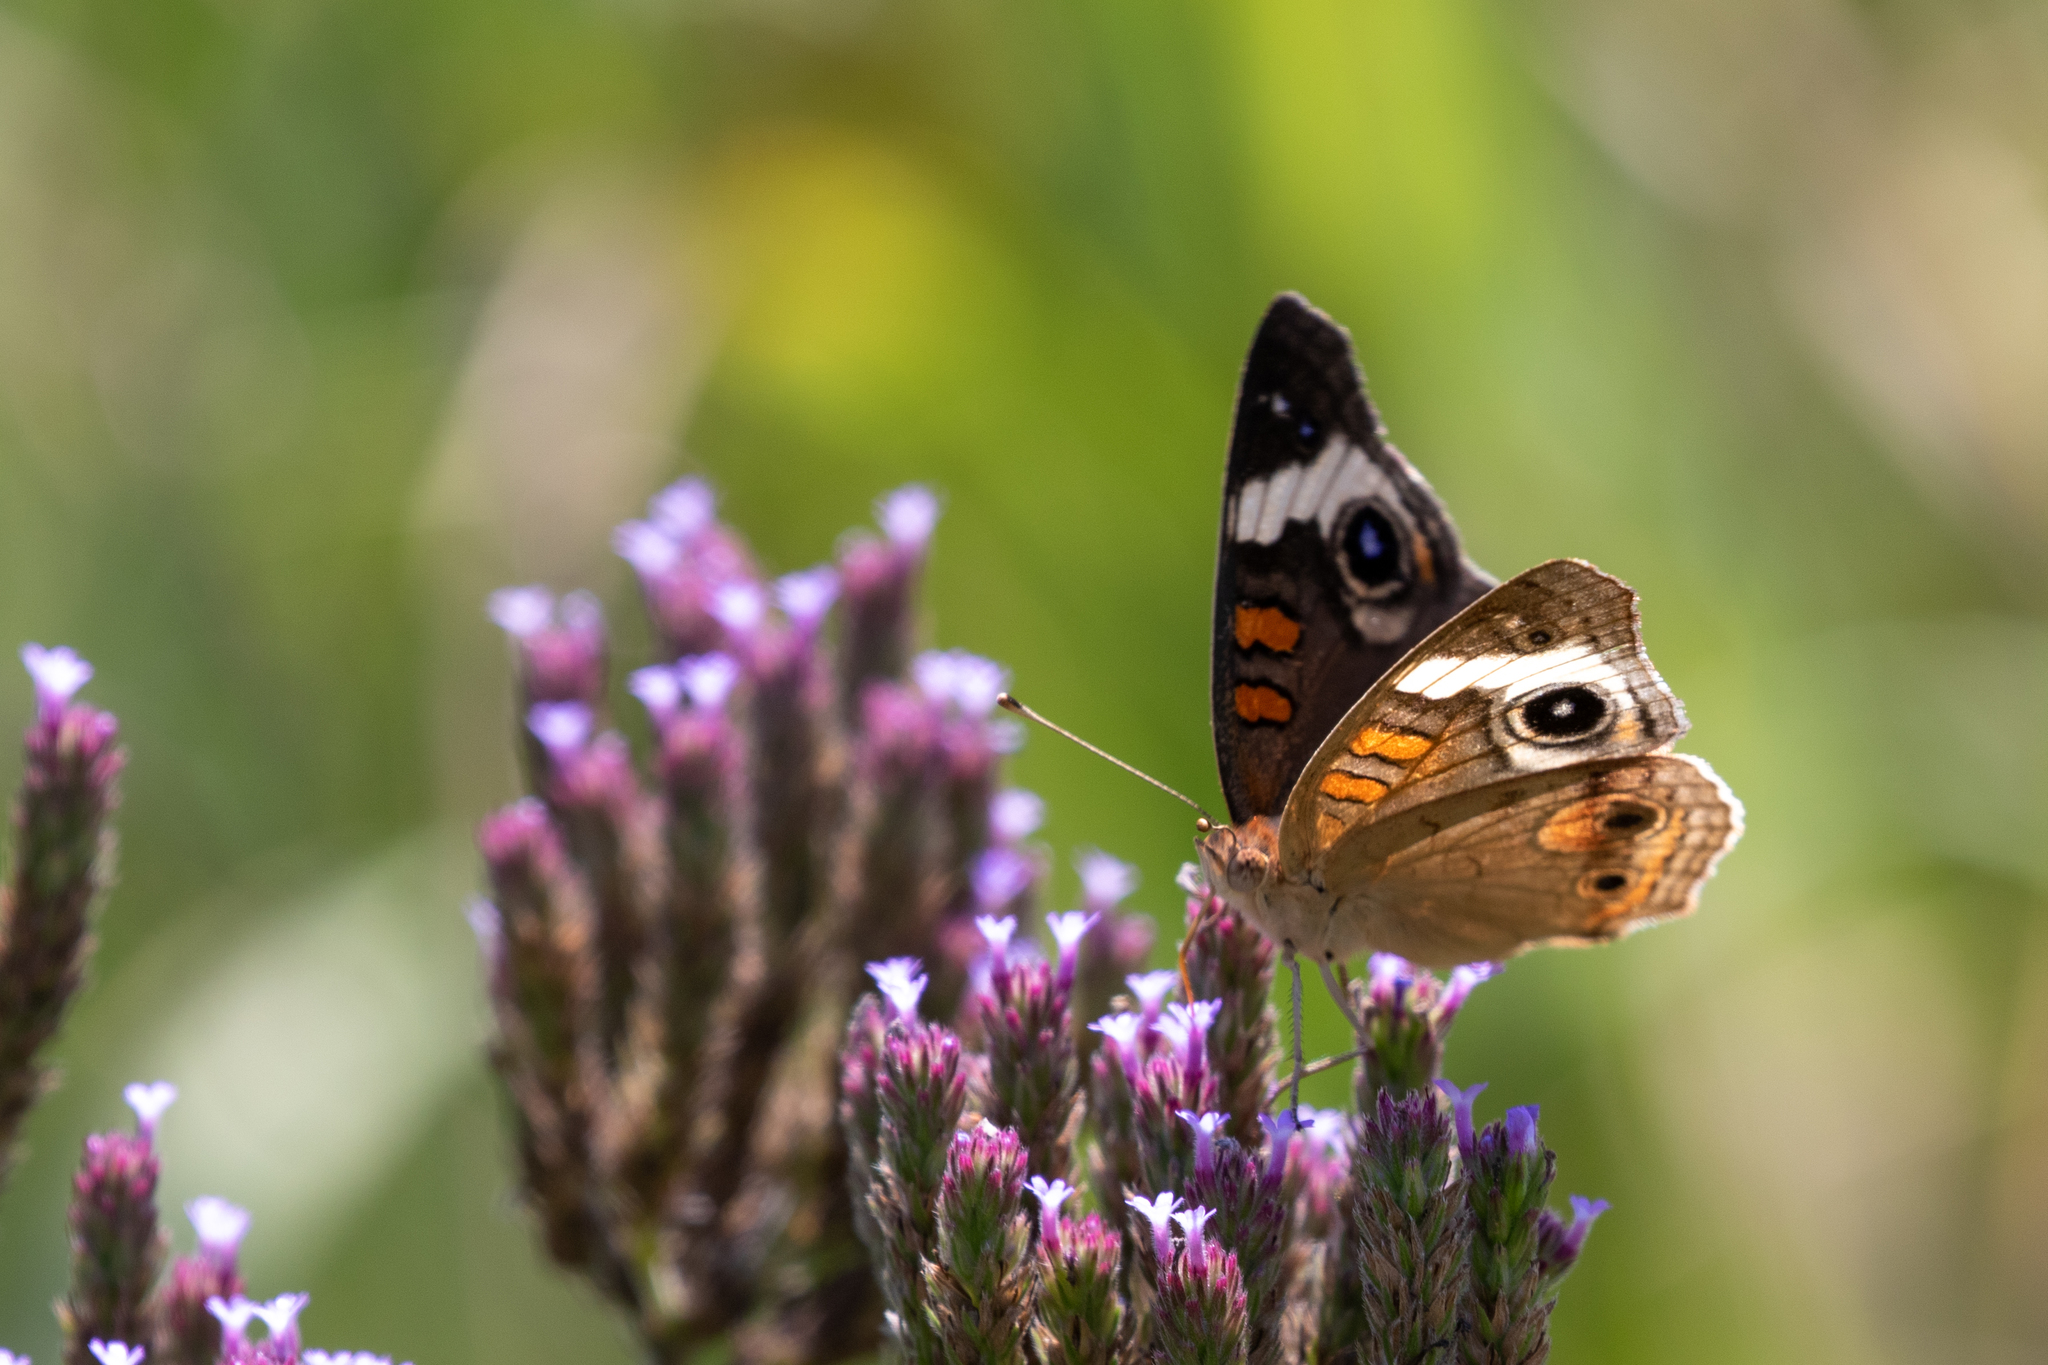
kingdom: Animalia
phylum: Arthropoda
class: Insecta
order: Lepidoptera
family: Nymphalidae
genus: Junonia
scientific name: Junonia coenia
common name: Common buckeye
